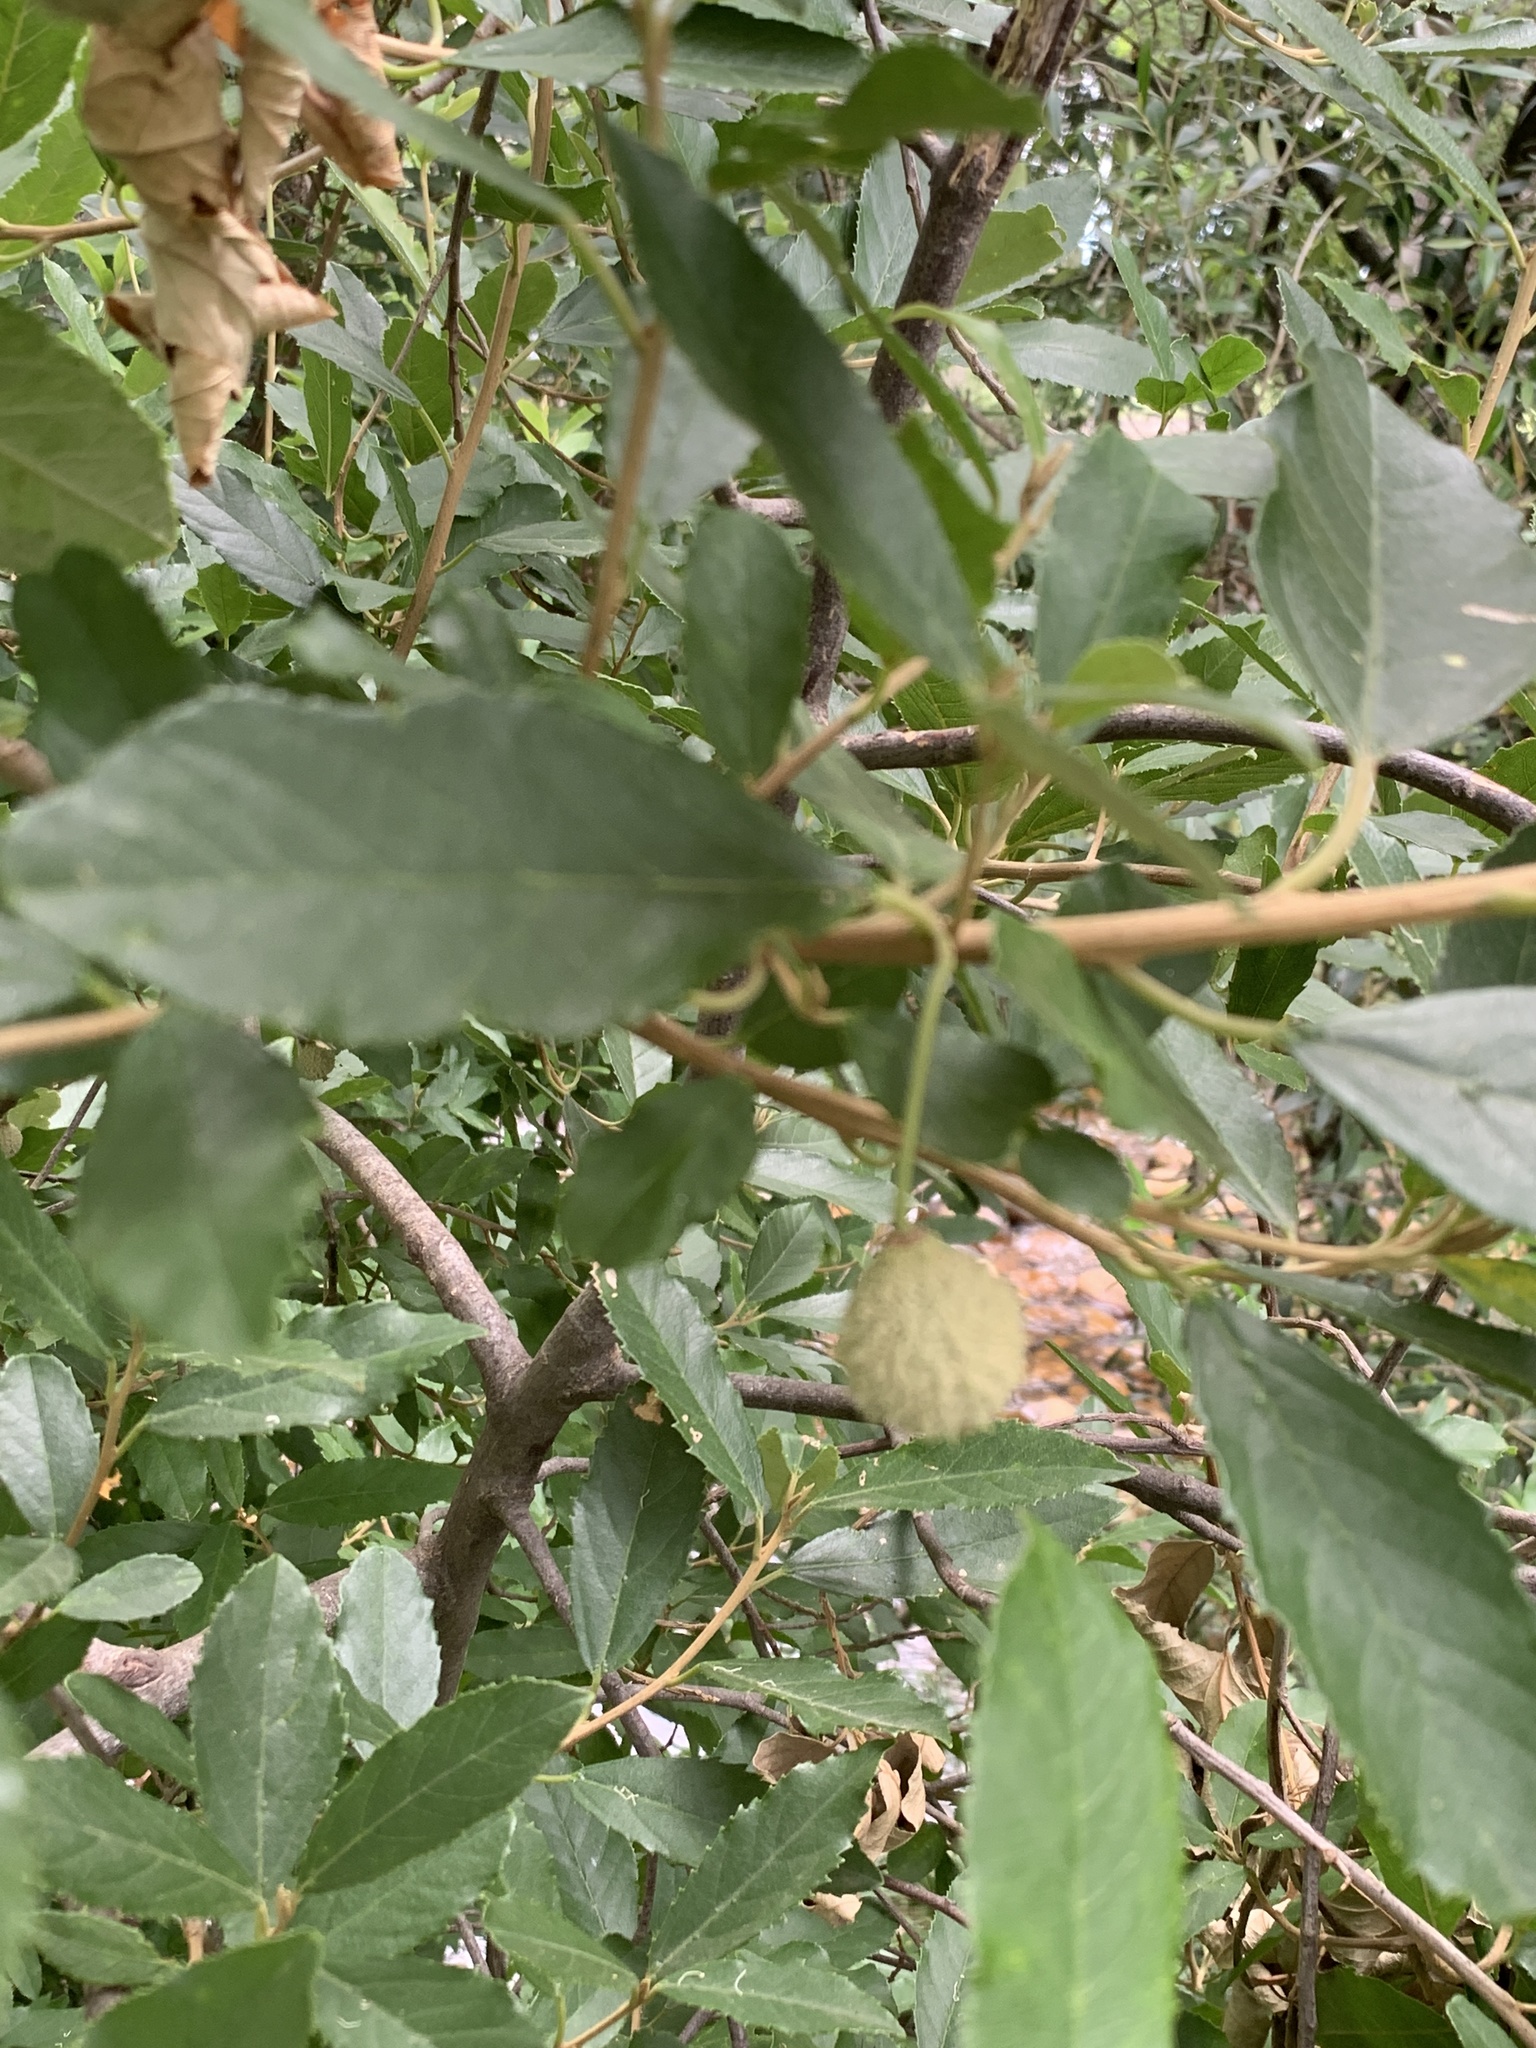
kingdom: Plantae
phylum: Tracheophyta
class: Magnoliopsida
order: Malpighiales
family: Achariaceae
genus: Kiggelaria
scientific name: Kiggelaria africana
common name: Wild peach
